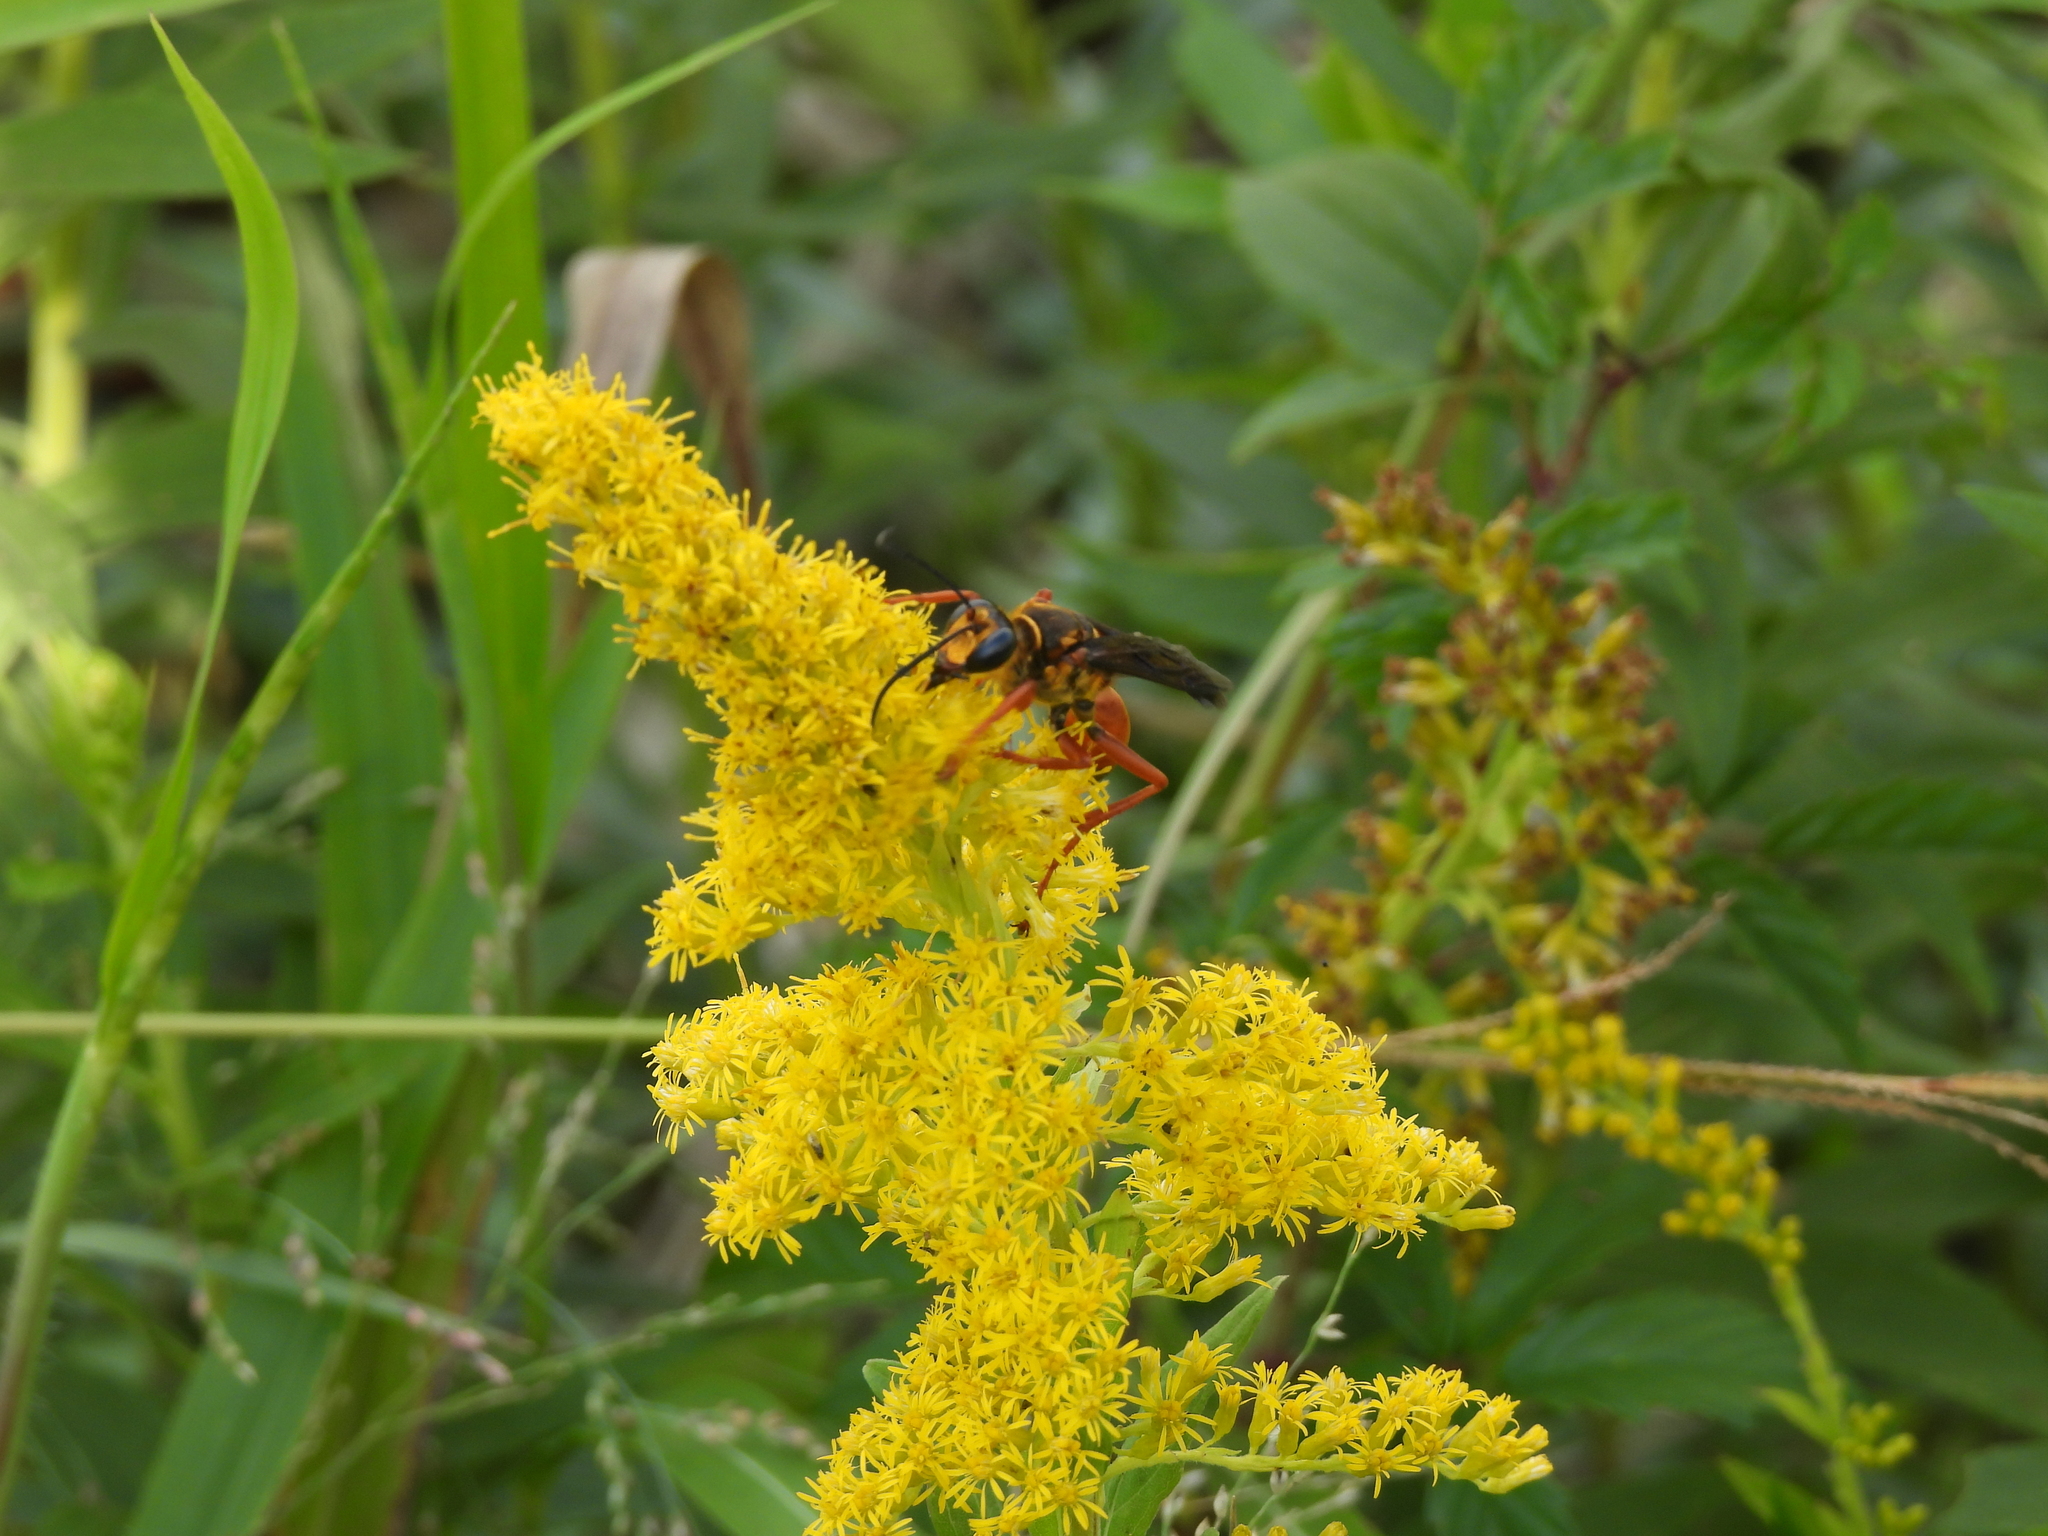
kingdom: Animalia
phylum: Arthropoda
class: Insecta
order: Hymenoptera
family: Sphecidae
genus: Sphex
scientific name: Sphex ichneumoneus
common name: Great golden digger wasp
